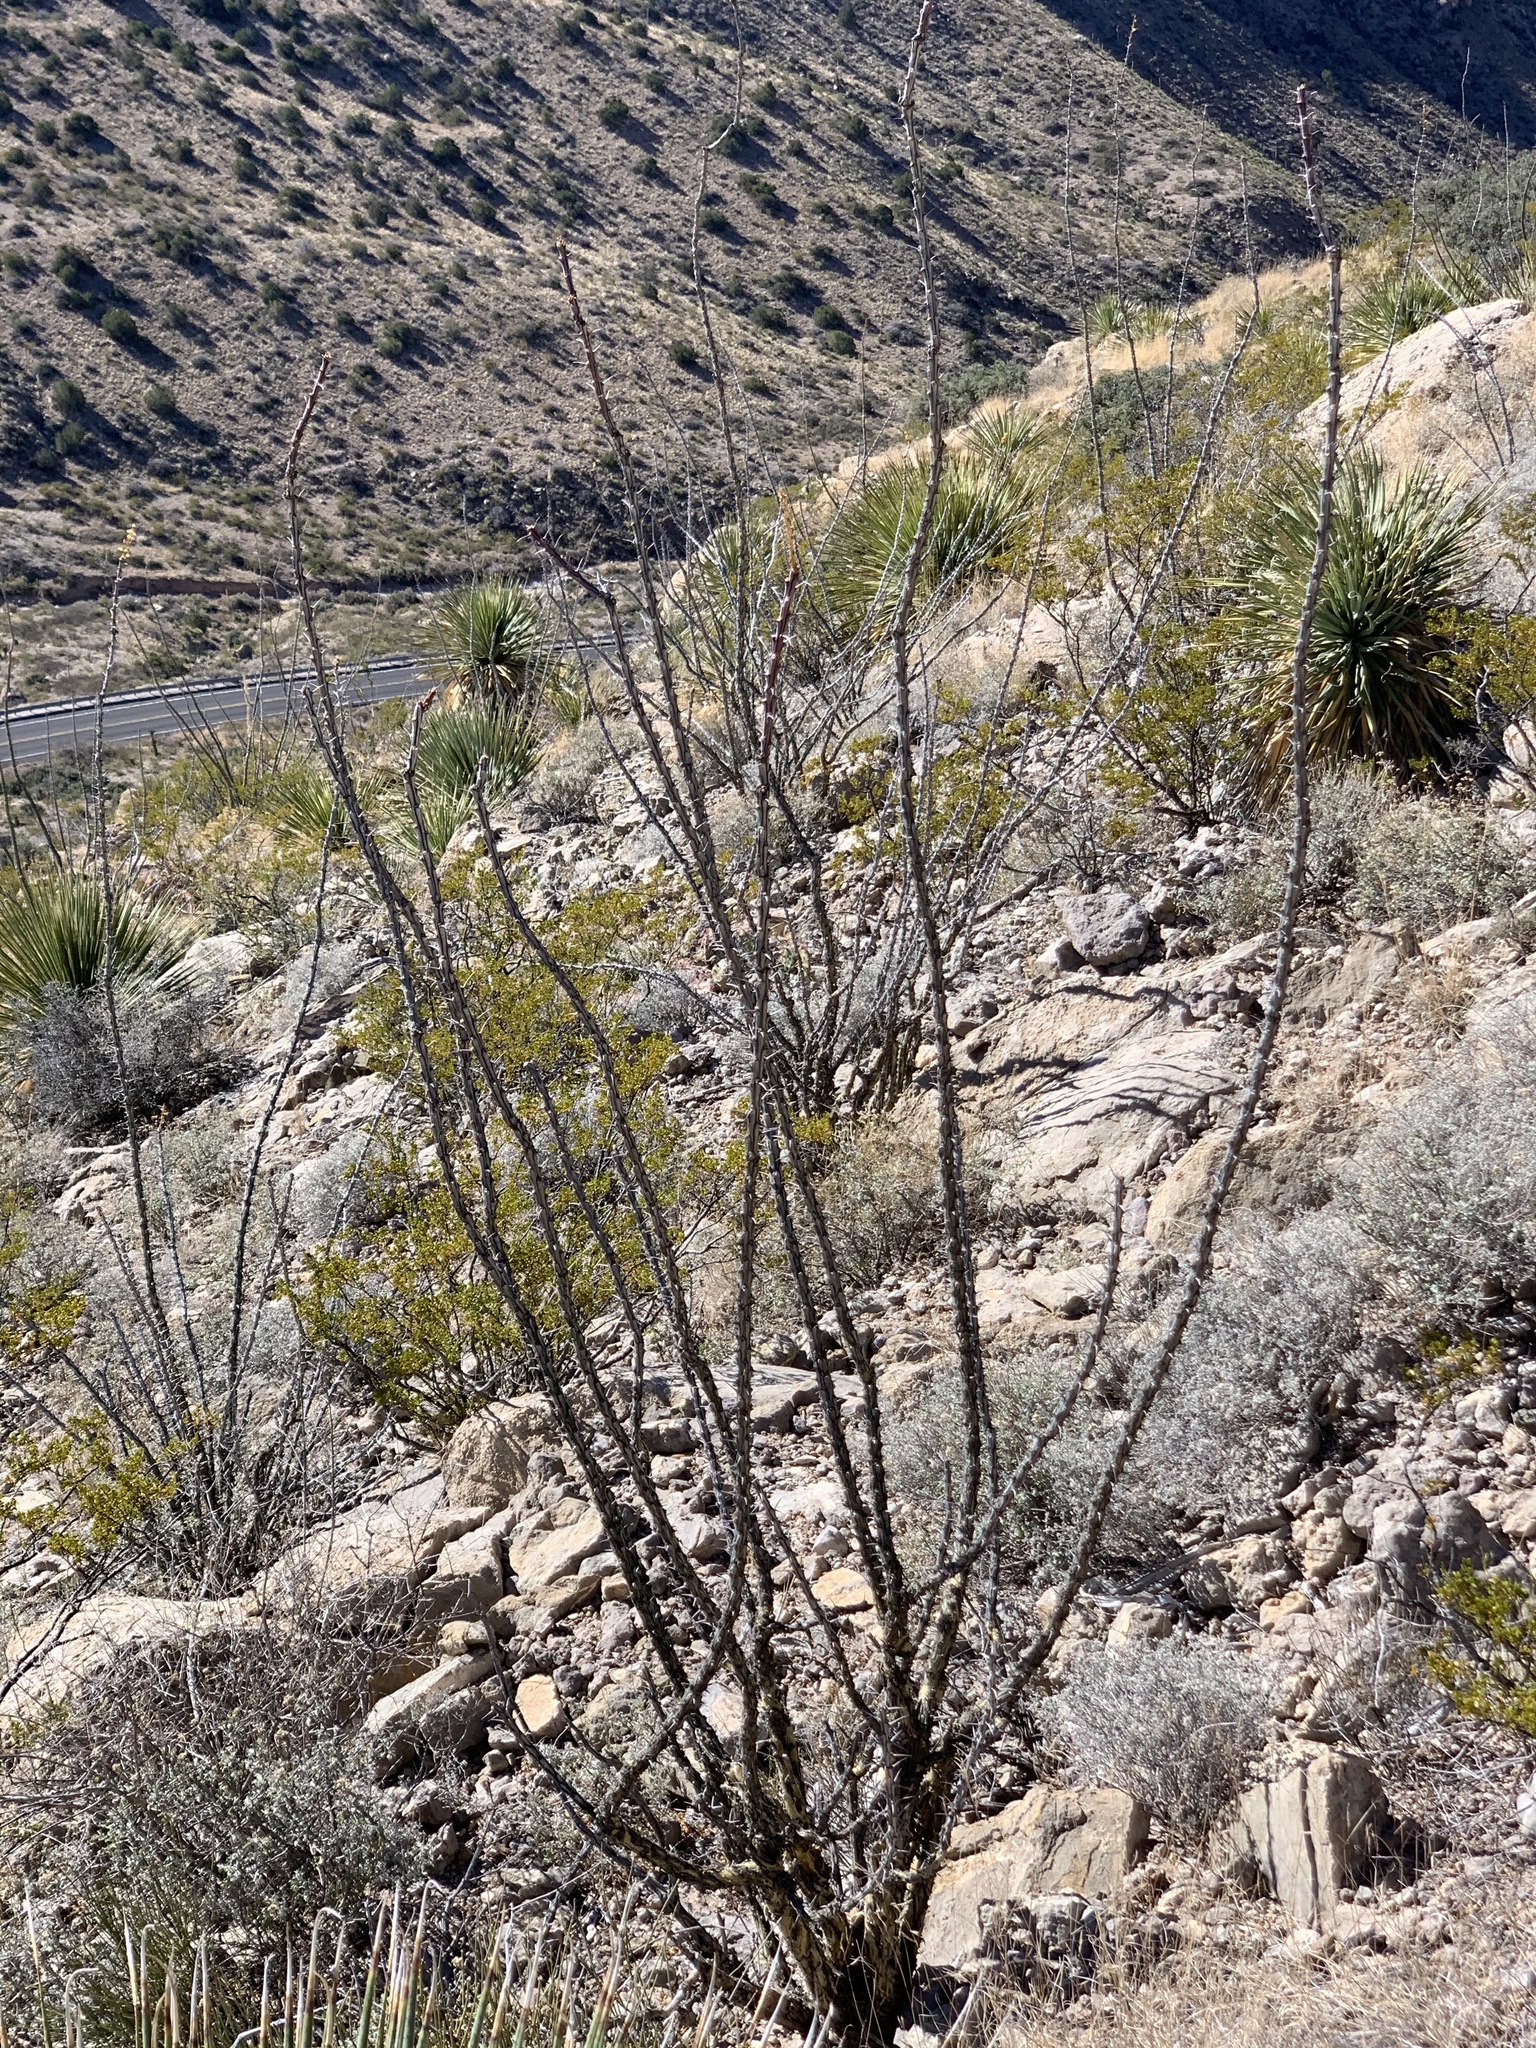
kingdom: Plantae
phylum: Tracheophyta
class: Magnoliopsida
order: Ericales
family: Fouquieriaceae
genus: Fouquieria
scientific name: Fouquieria splendens
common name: Vine-cactus
